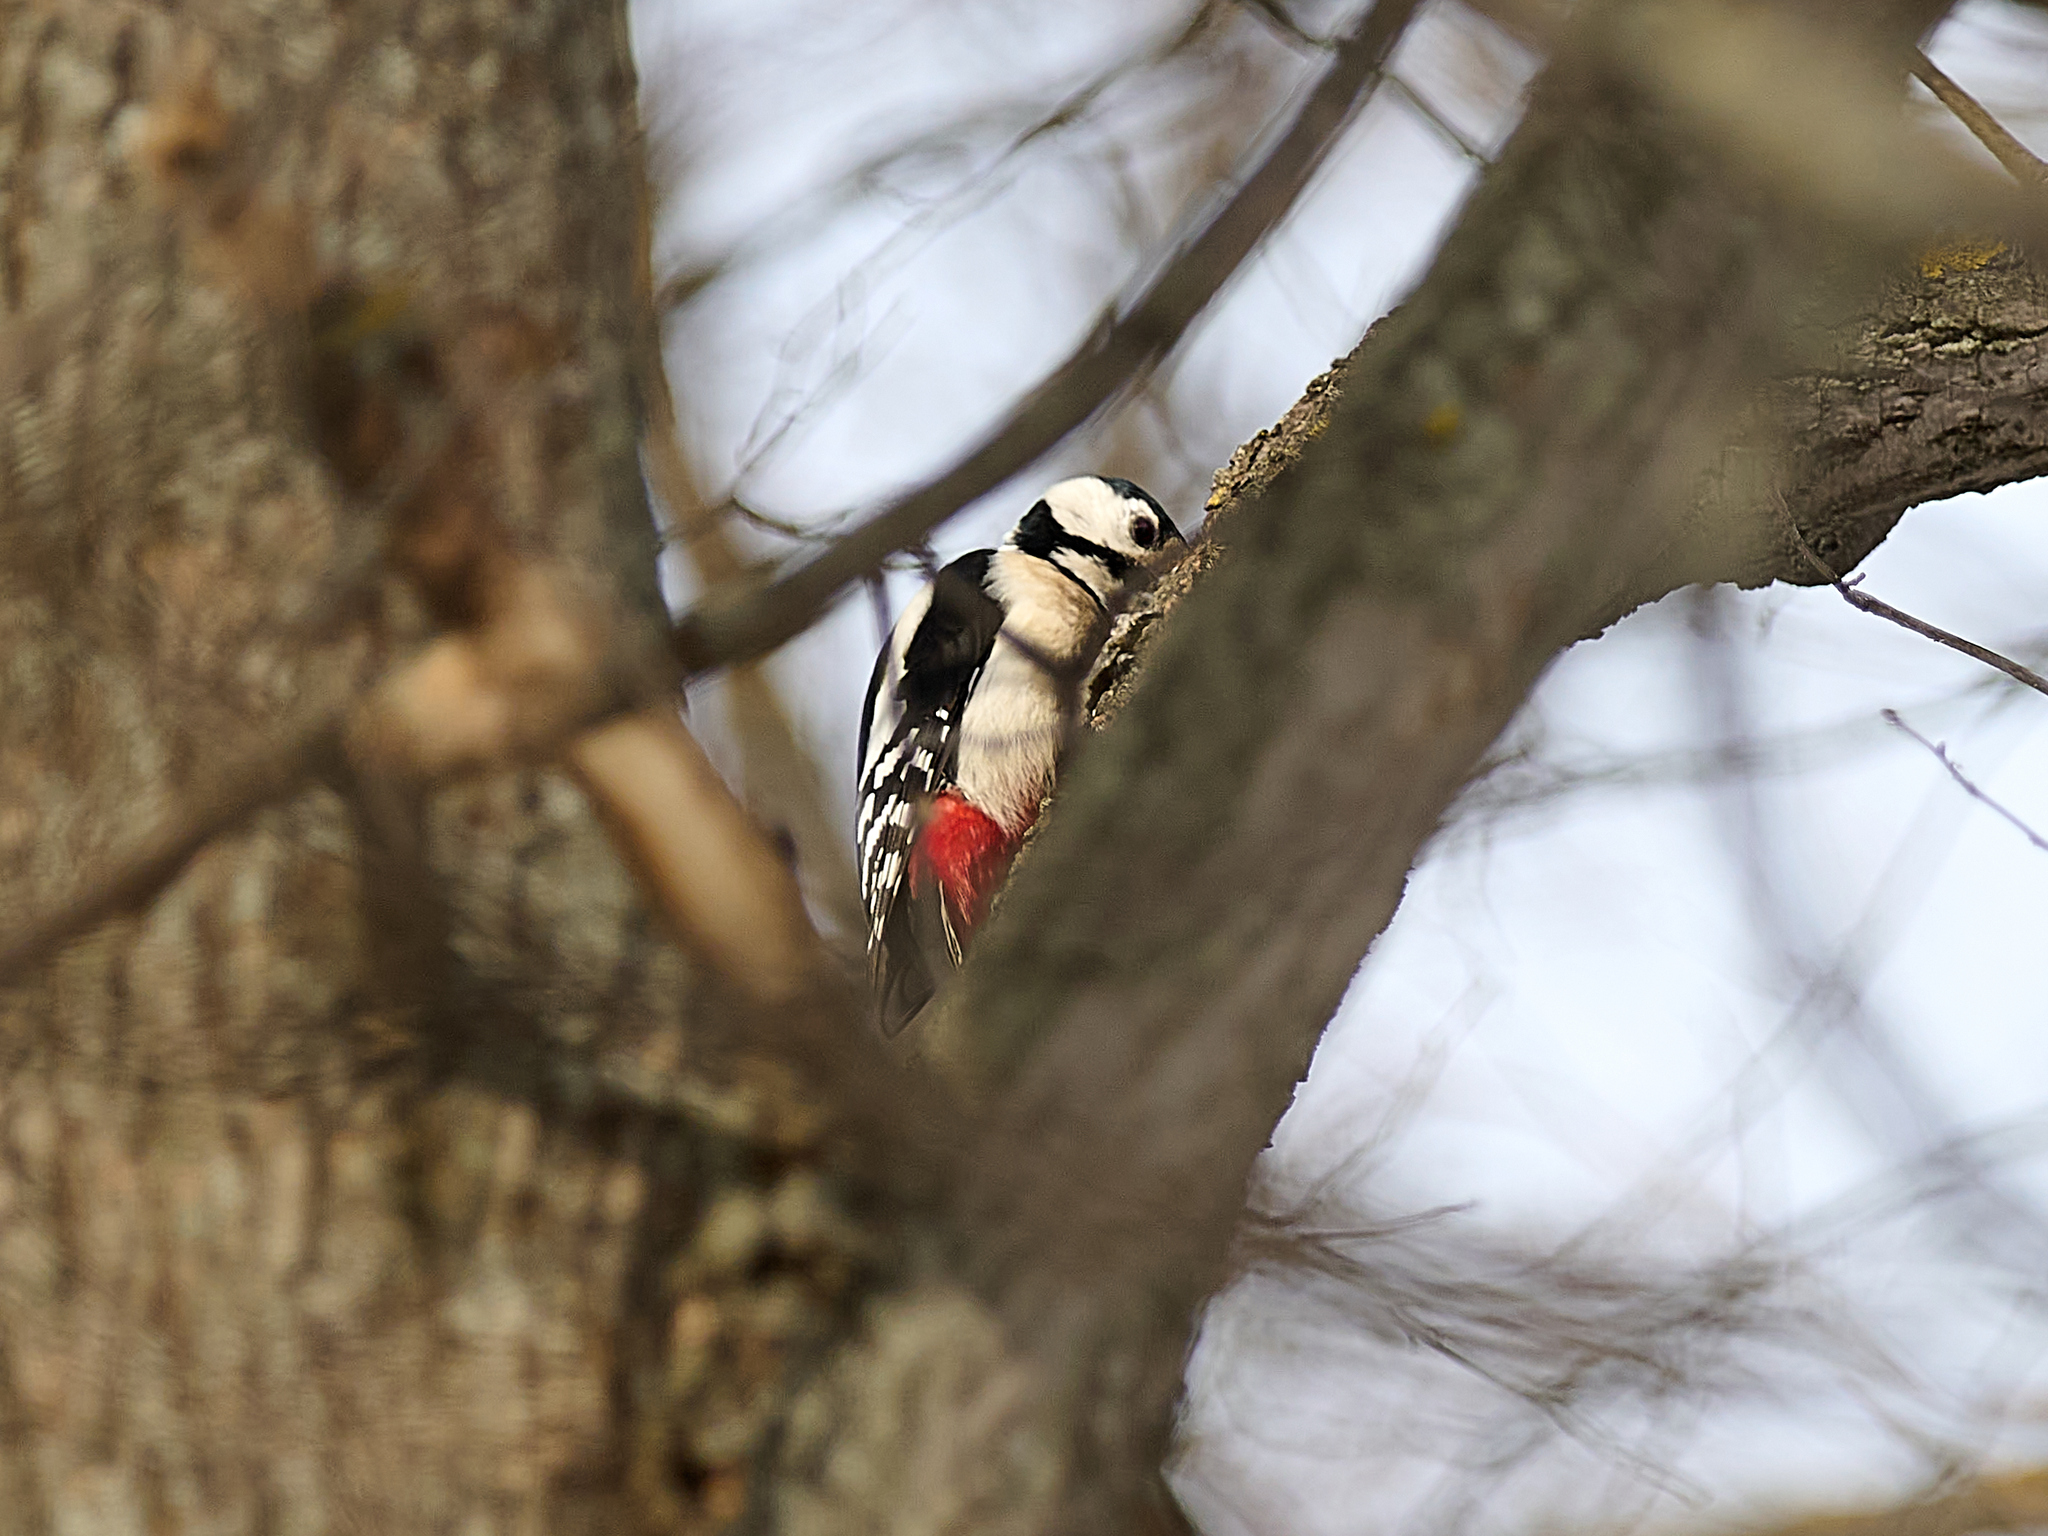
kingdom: Animalia
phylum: Chordata
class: Aves
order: Piciformes
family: Picidae
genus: Dendrocopos
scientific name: Dendrocopos major
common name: Great spotted woodpecker
